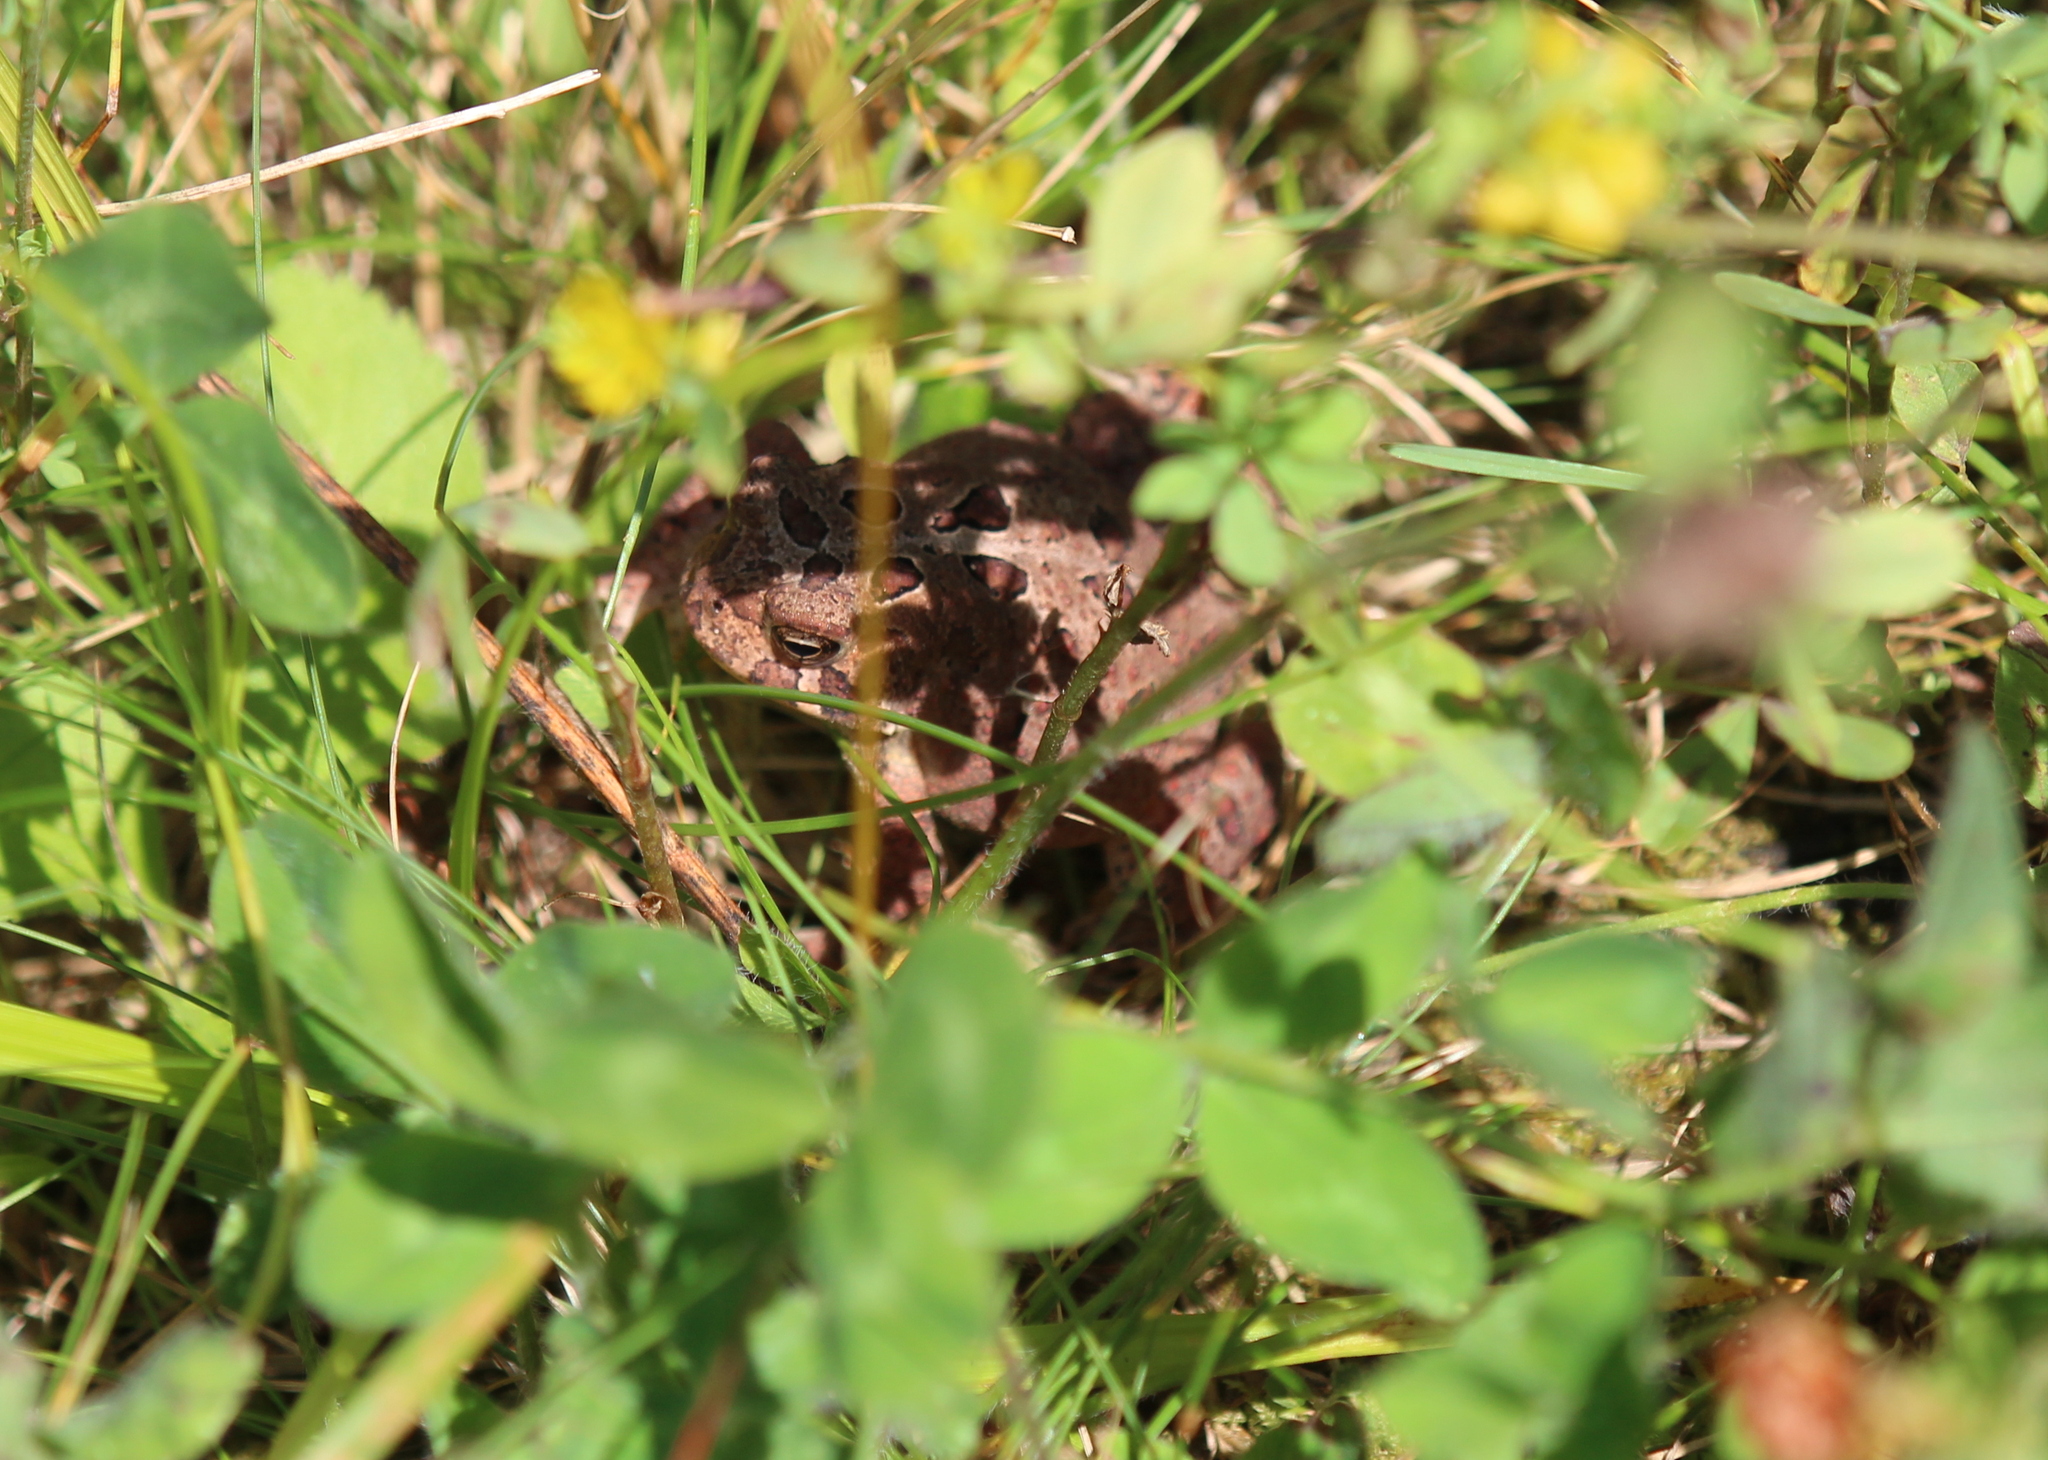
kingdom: Animalia
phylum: Chordata
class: Amphibia
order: Anura
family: Bufonidae
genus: Anaxyrus
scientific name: Anaxyrus americanus
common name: American toad
